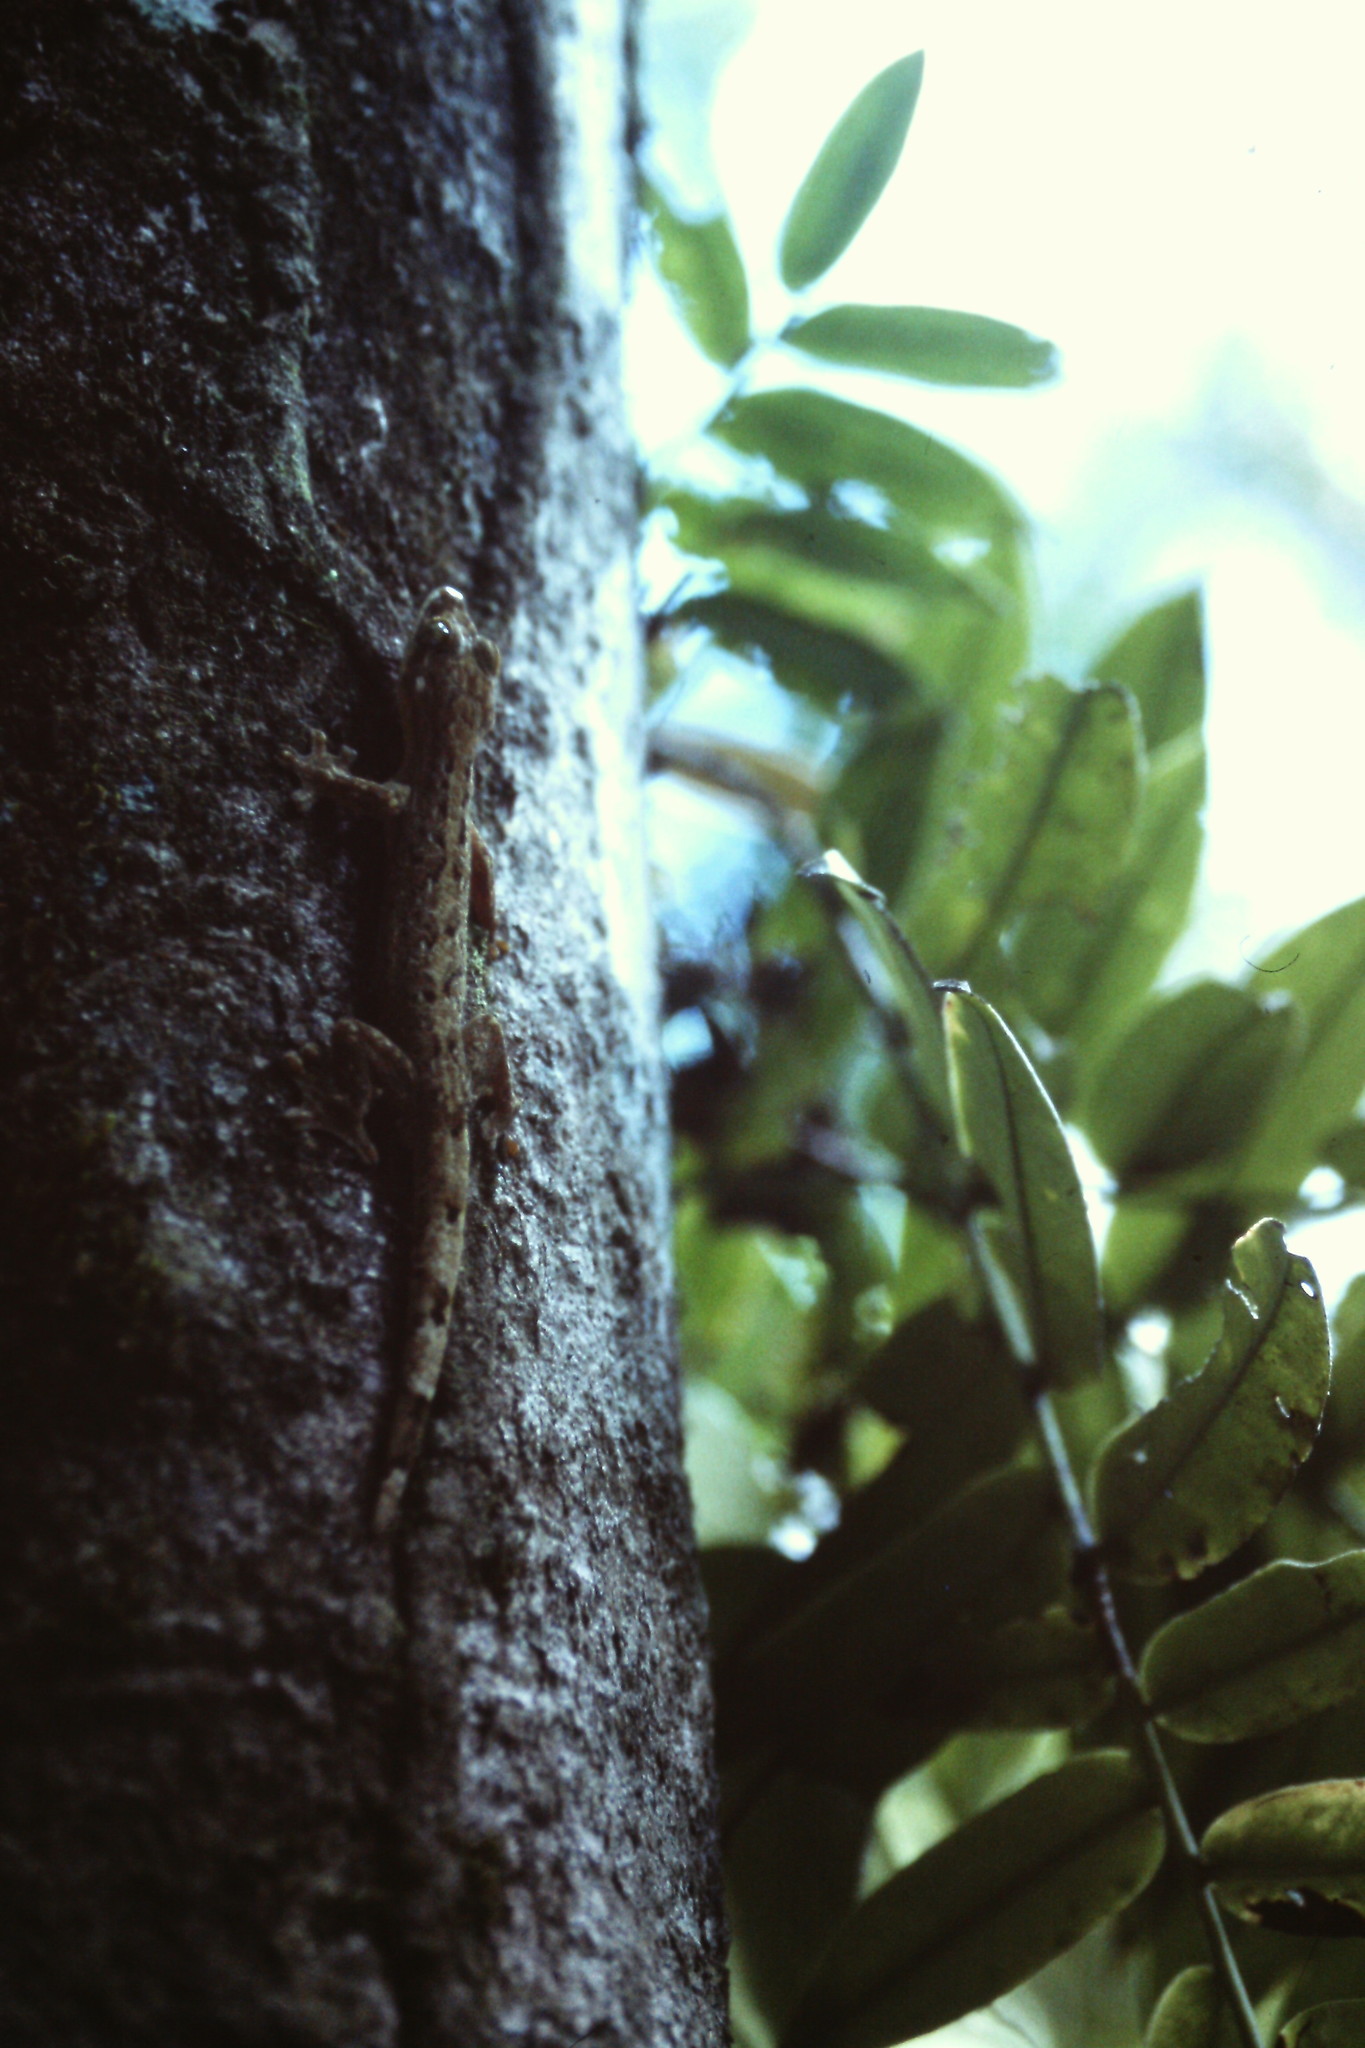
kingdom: Animalia
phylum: Chordata
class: Squamata
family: Phyllodactylidae
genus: Thecadactylus
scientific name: Thecadactylus rapicauda
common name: Turnip-tailed gecko
